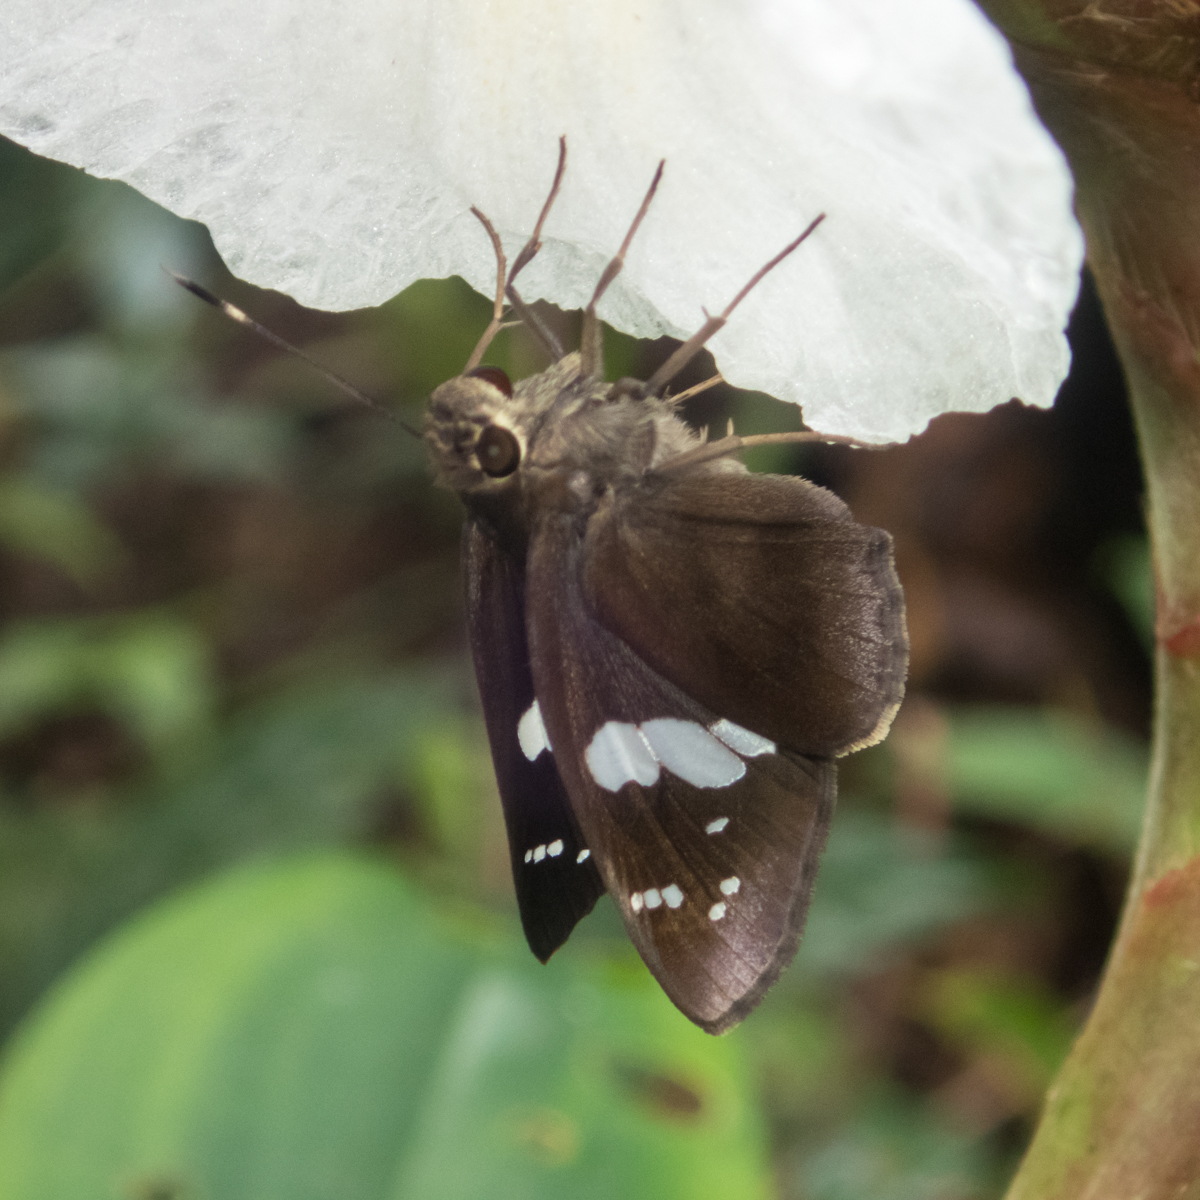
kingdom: Animalia
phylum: Arthropoda
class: Insecta
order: Lepidoptera
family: Hesperiidae
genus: Notocrypta
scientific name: Notocrypta curvifascia
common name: Restricted demon
